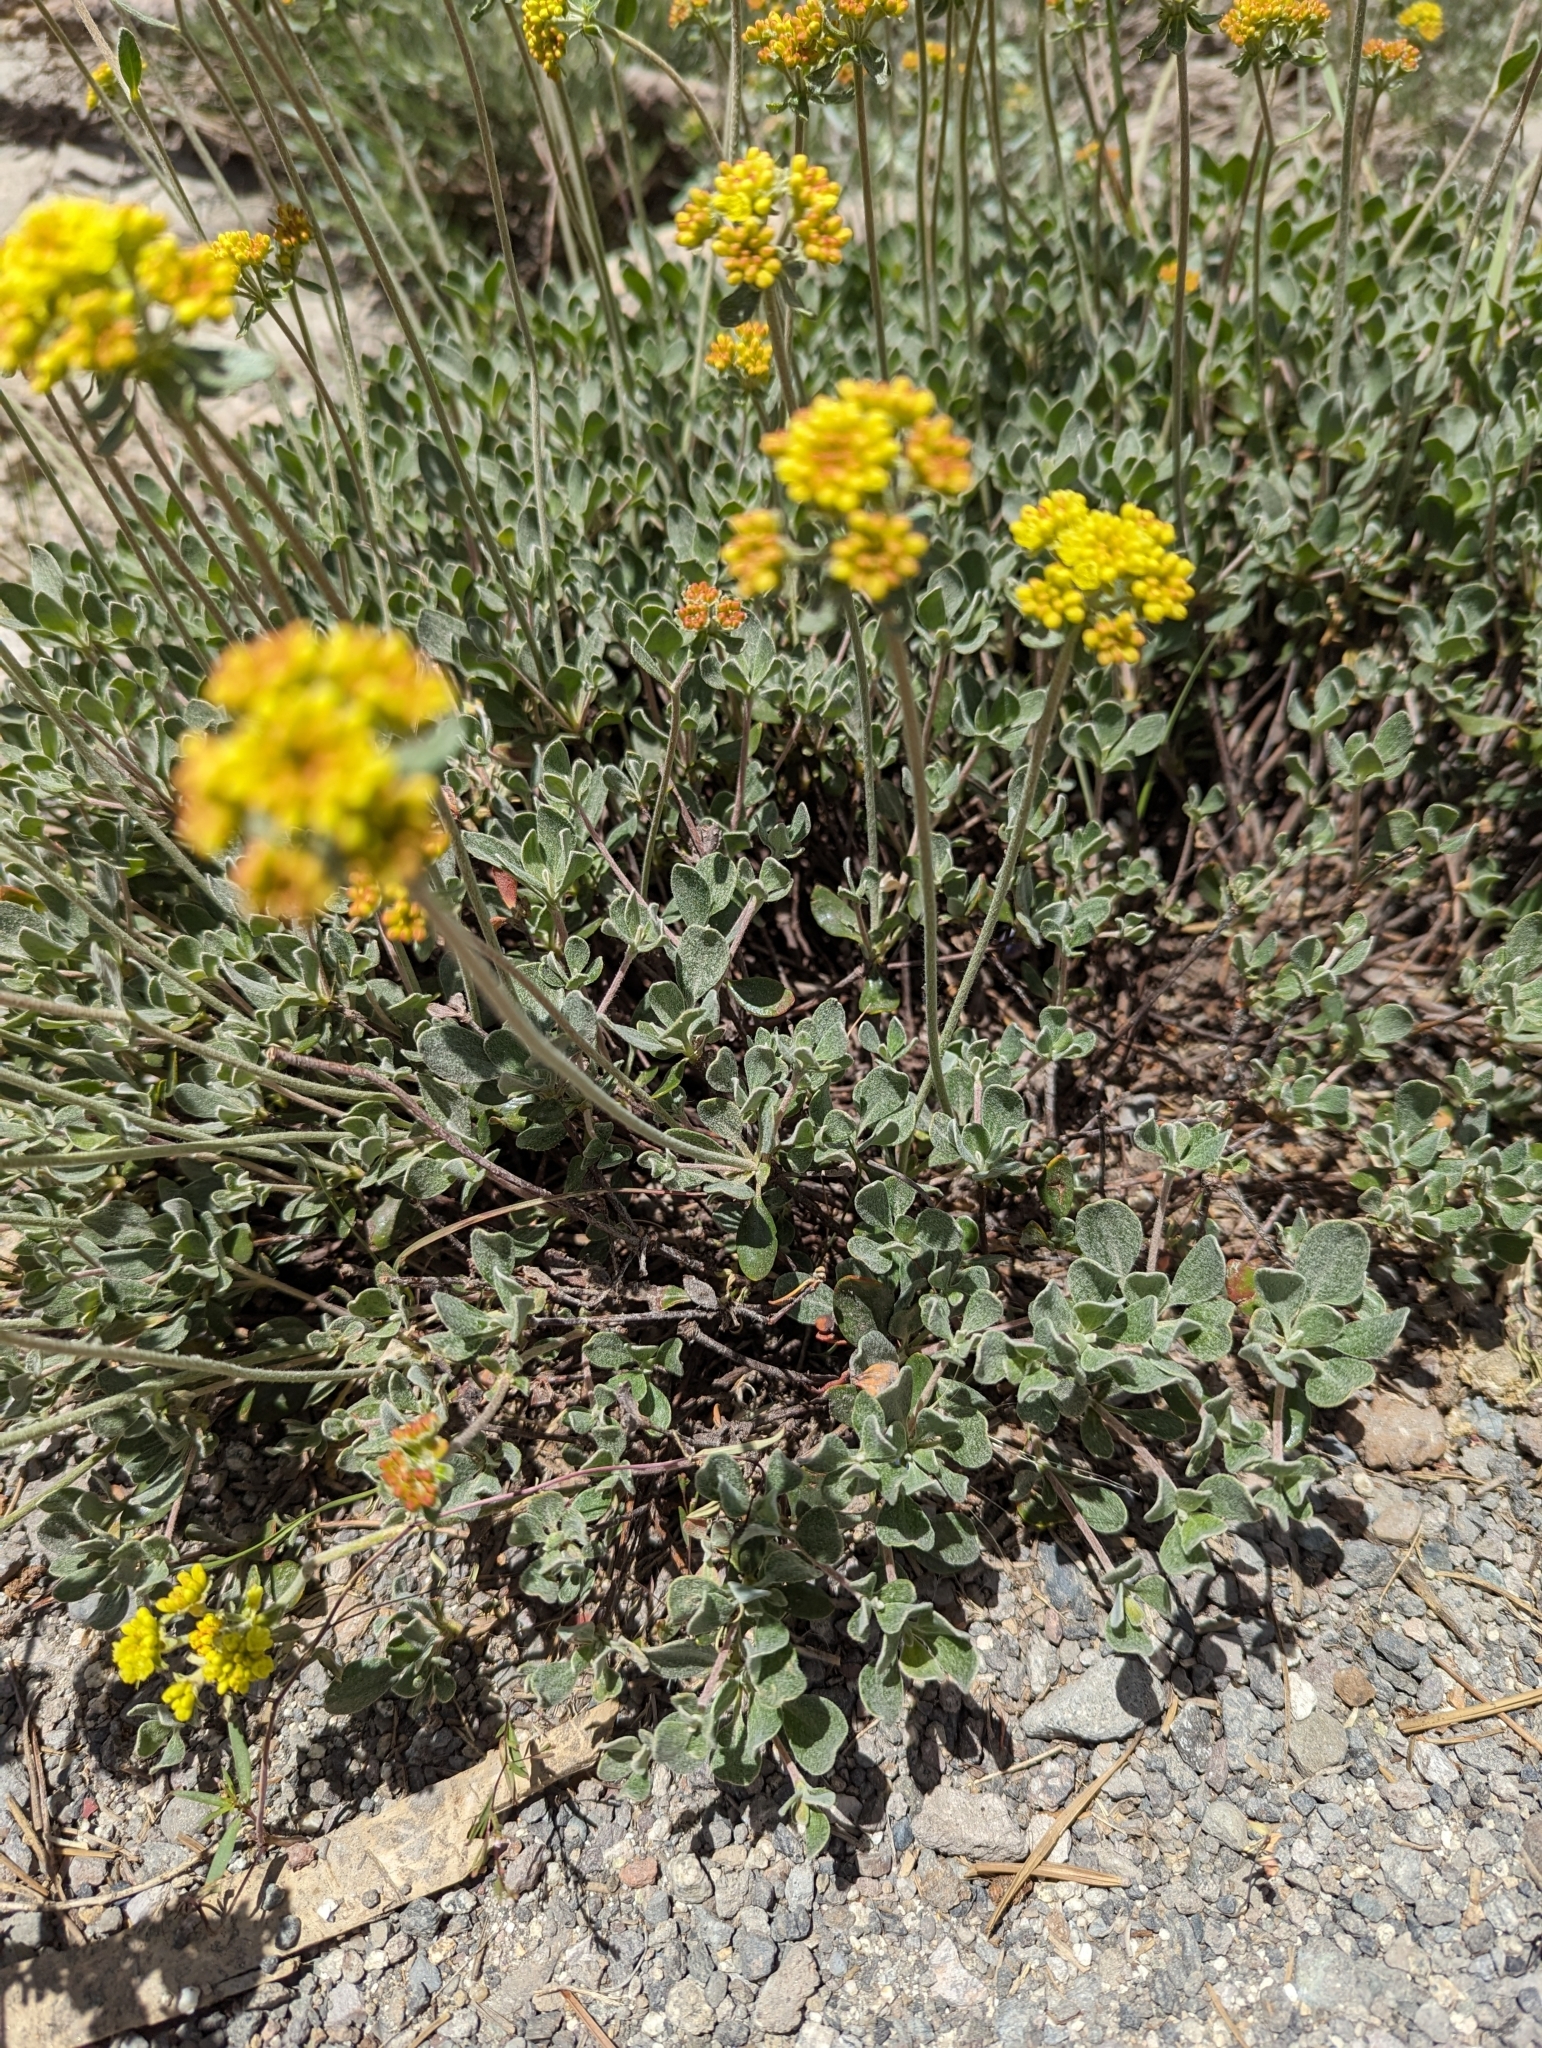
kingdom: Plantae
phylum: Tracheophyta
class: Magnoliopsida
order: Caryophyllales
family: Polygonaceae
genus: Eriogonum
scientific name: Eriogonum umbellatum
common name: Sulfur-buckwheat
